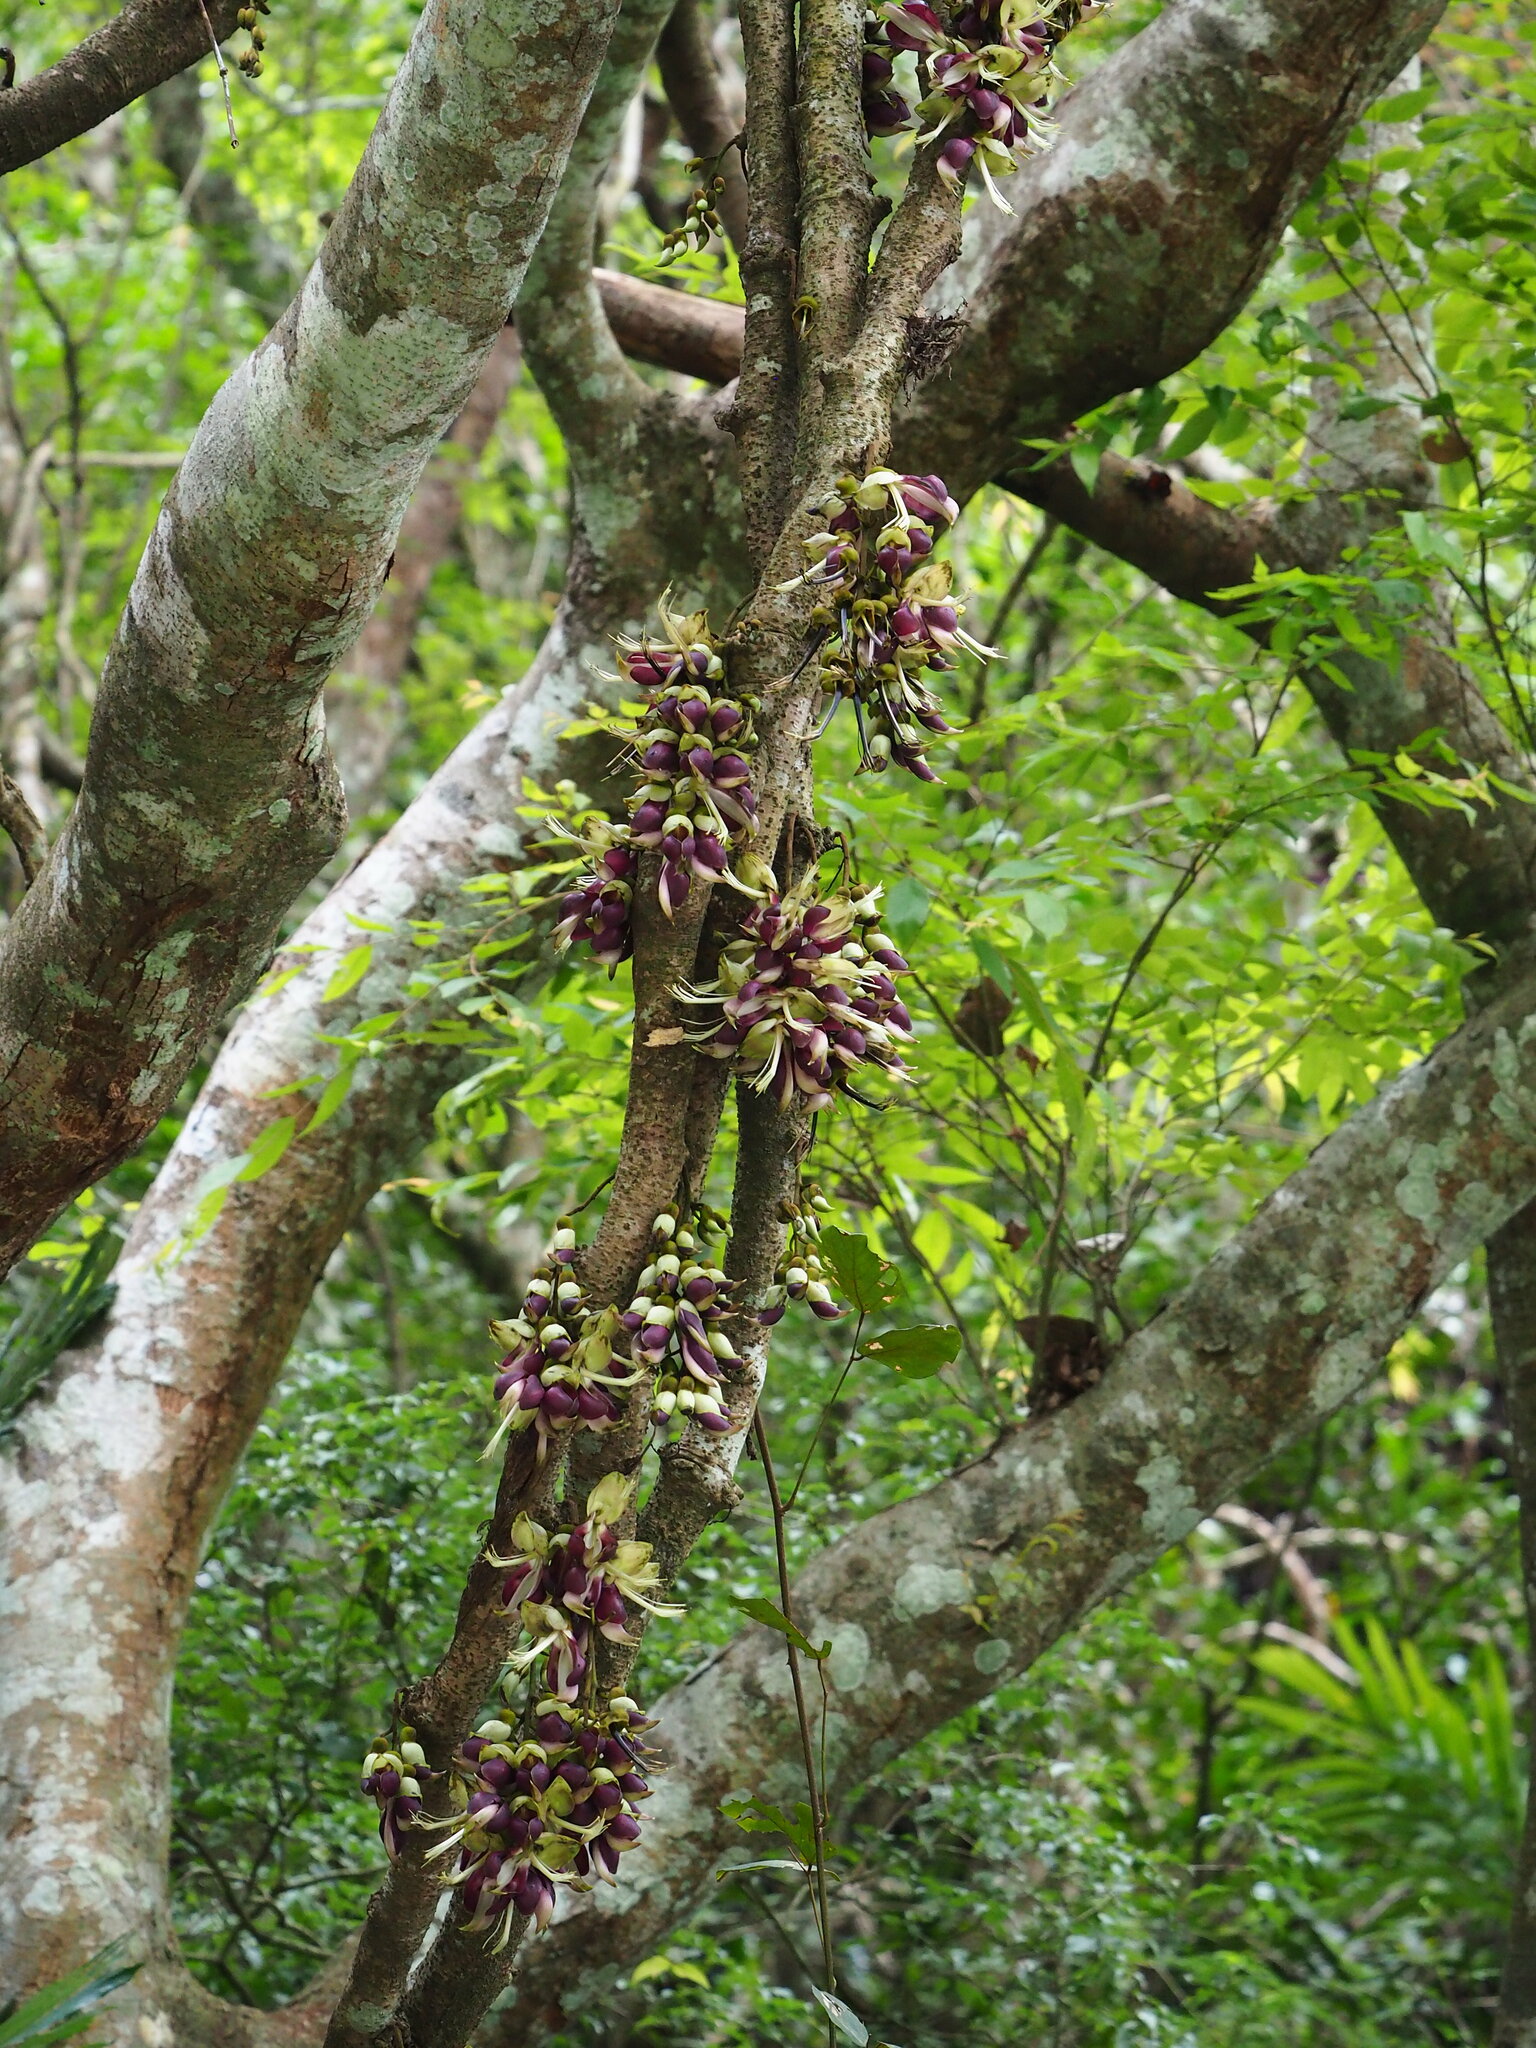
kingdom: Plantae
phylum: Tracheophyta
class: Magnoliopsida
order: Fabales
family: Fabaceae
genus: Mucuna
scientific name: Mucuna macrocarpa
